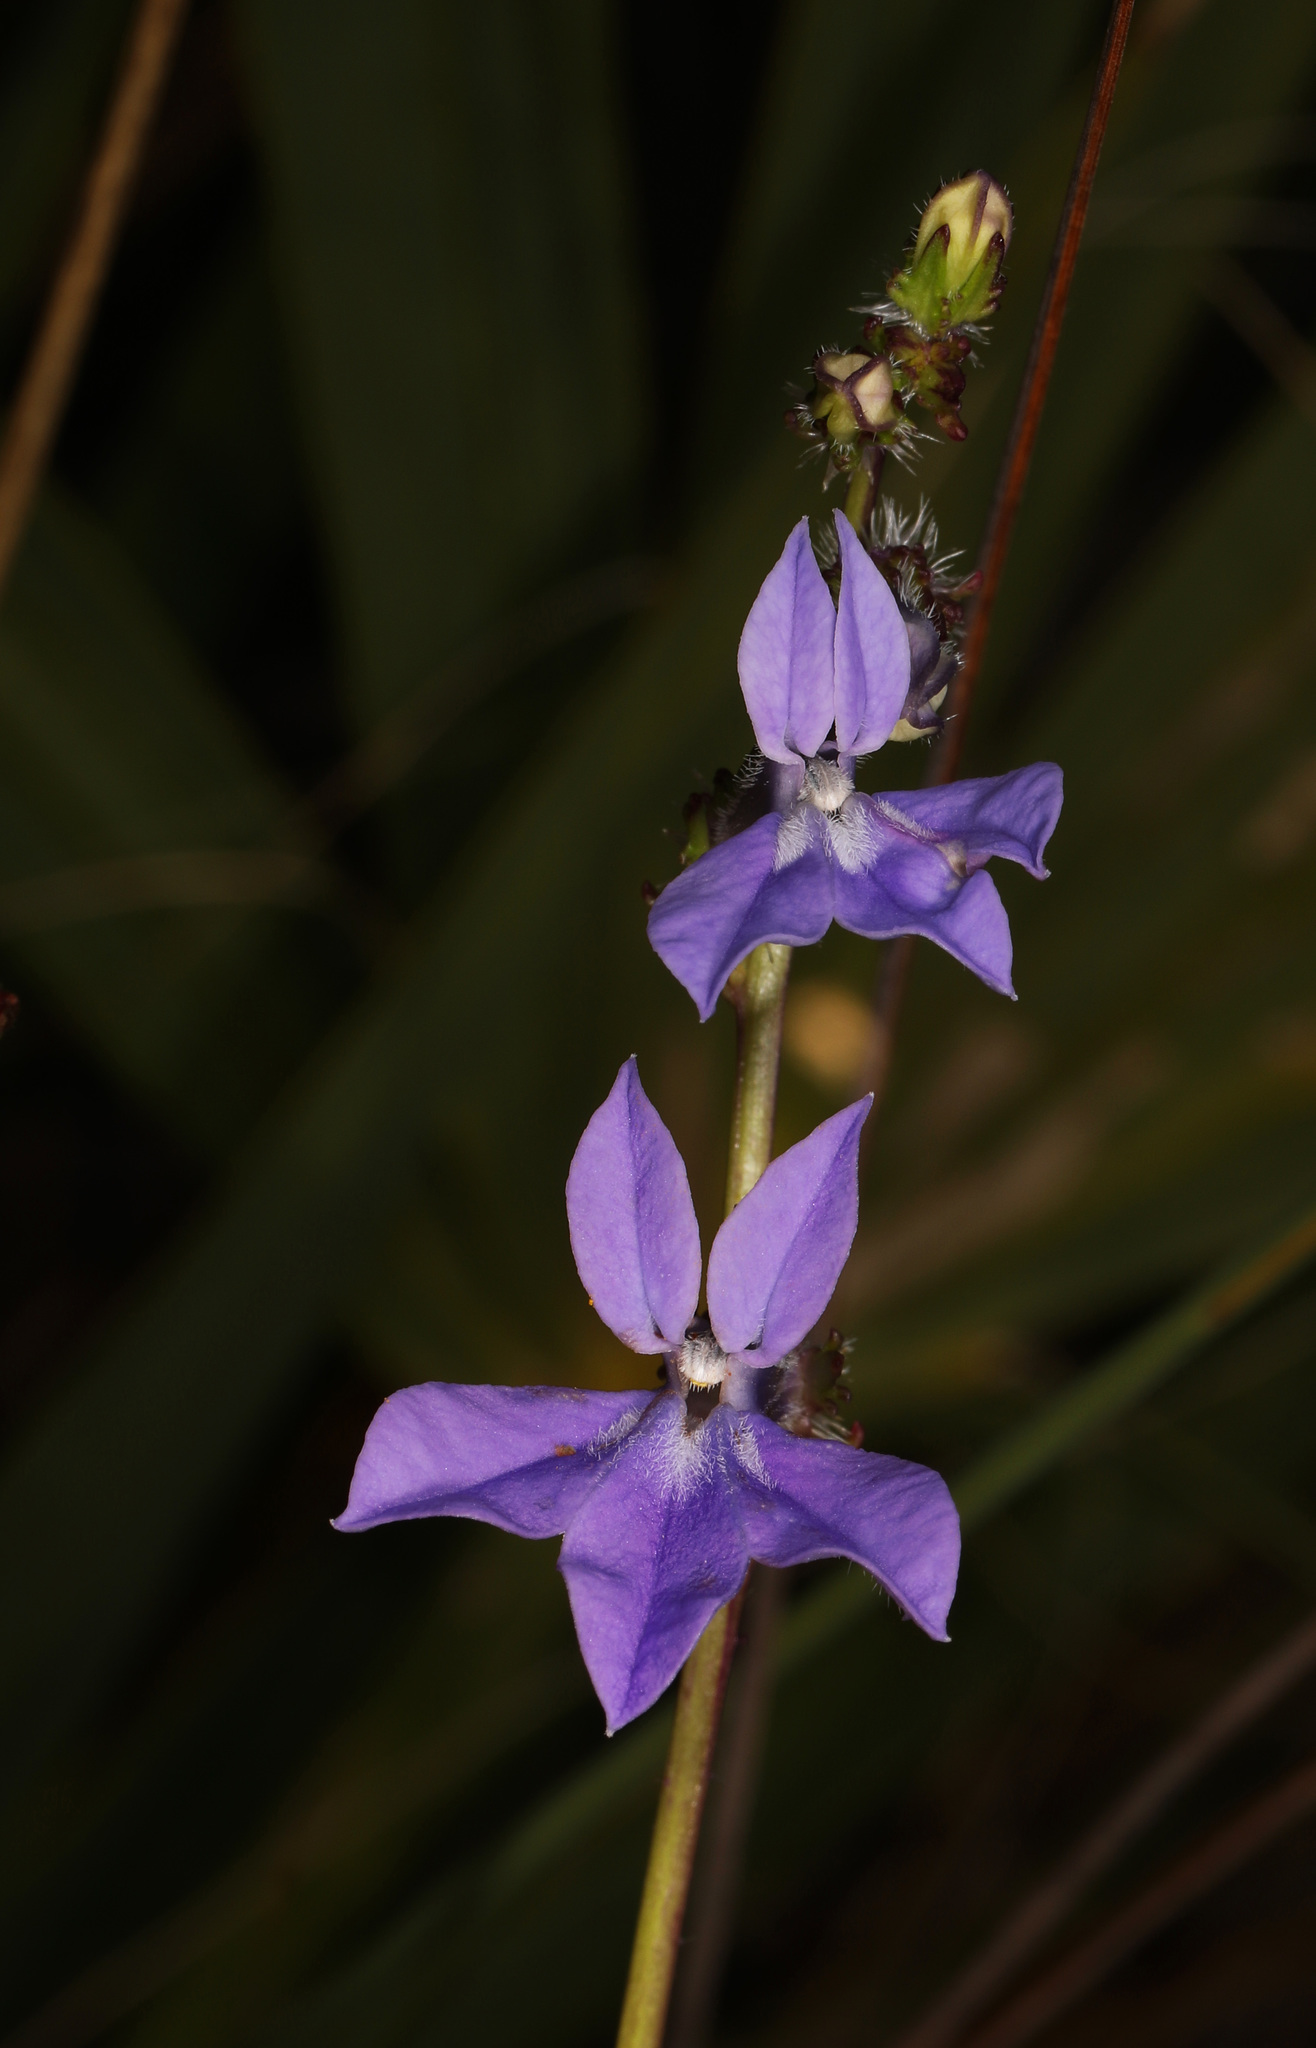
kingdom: Plantae
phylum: Tracheophyta
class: Magnoliopsida
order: Asterales
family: Campanulaceae
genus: Lobelia
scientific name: Lobelia glandulosa
